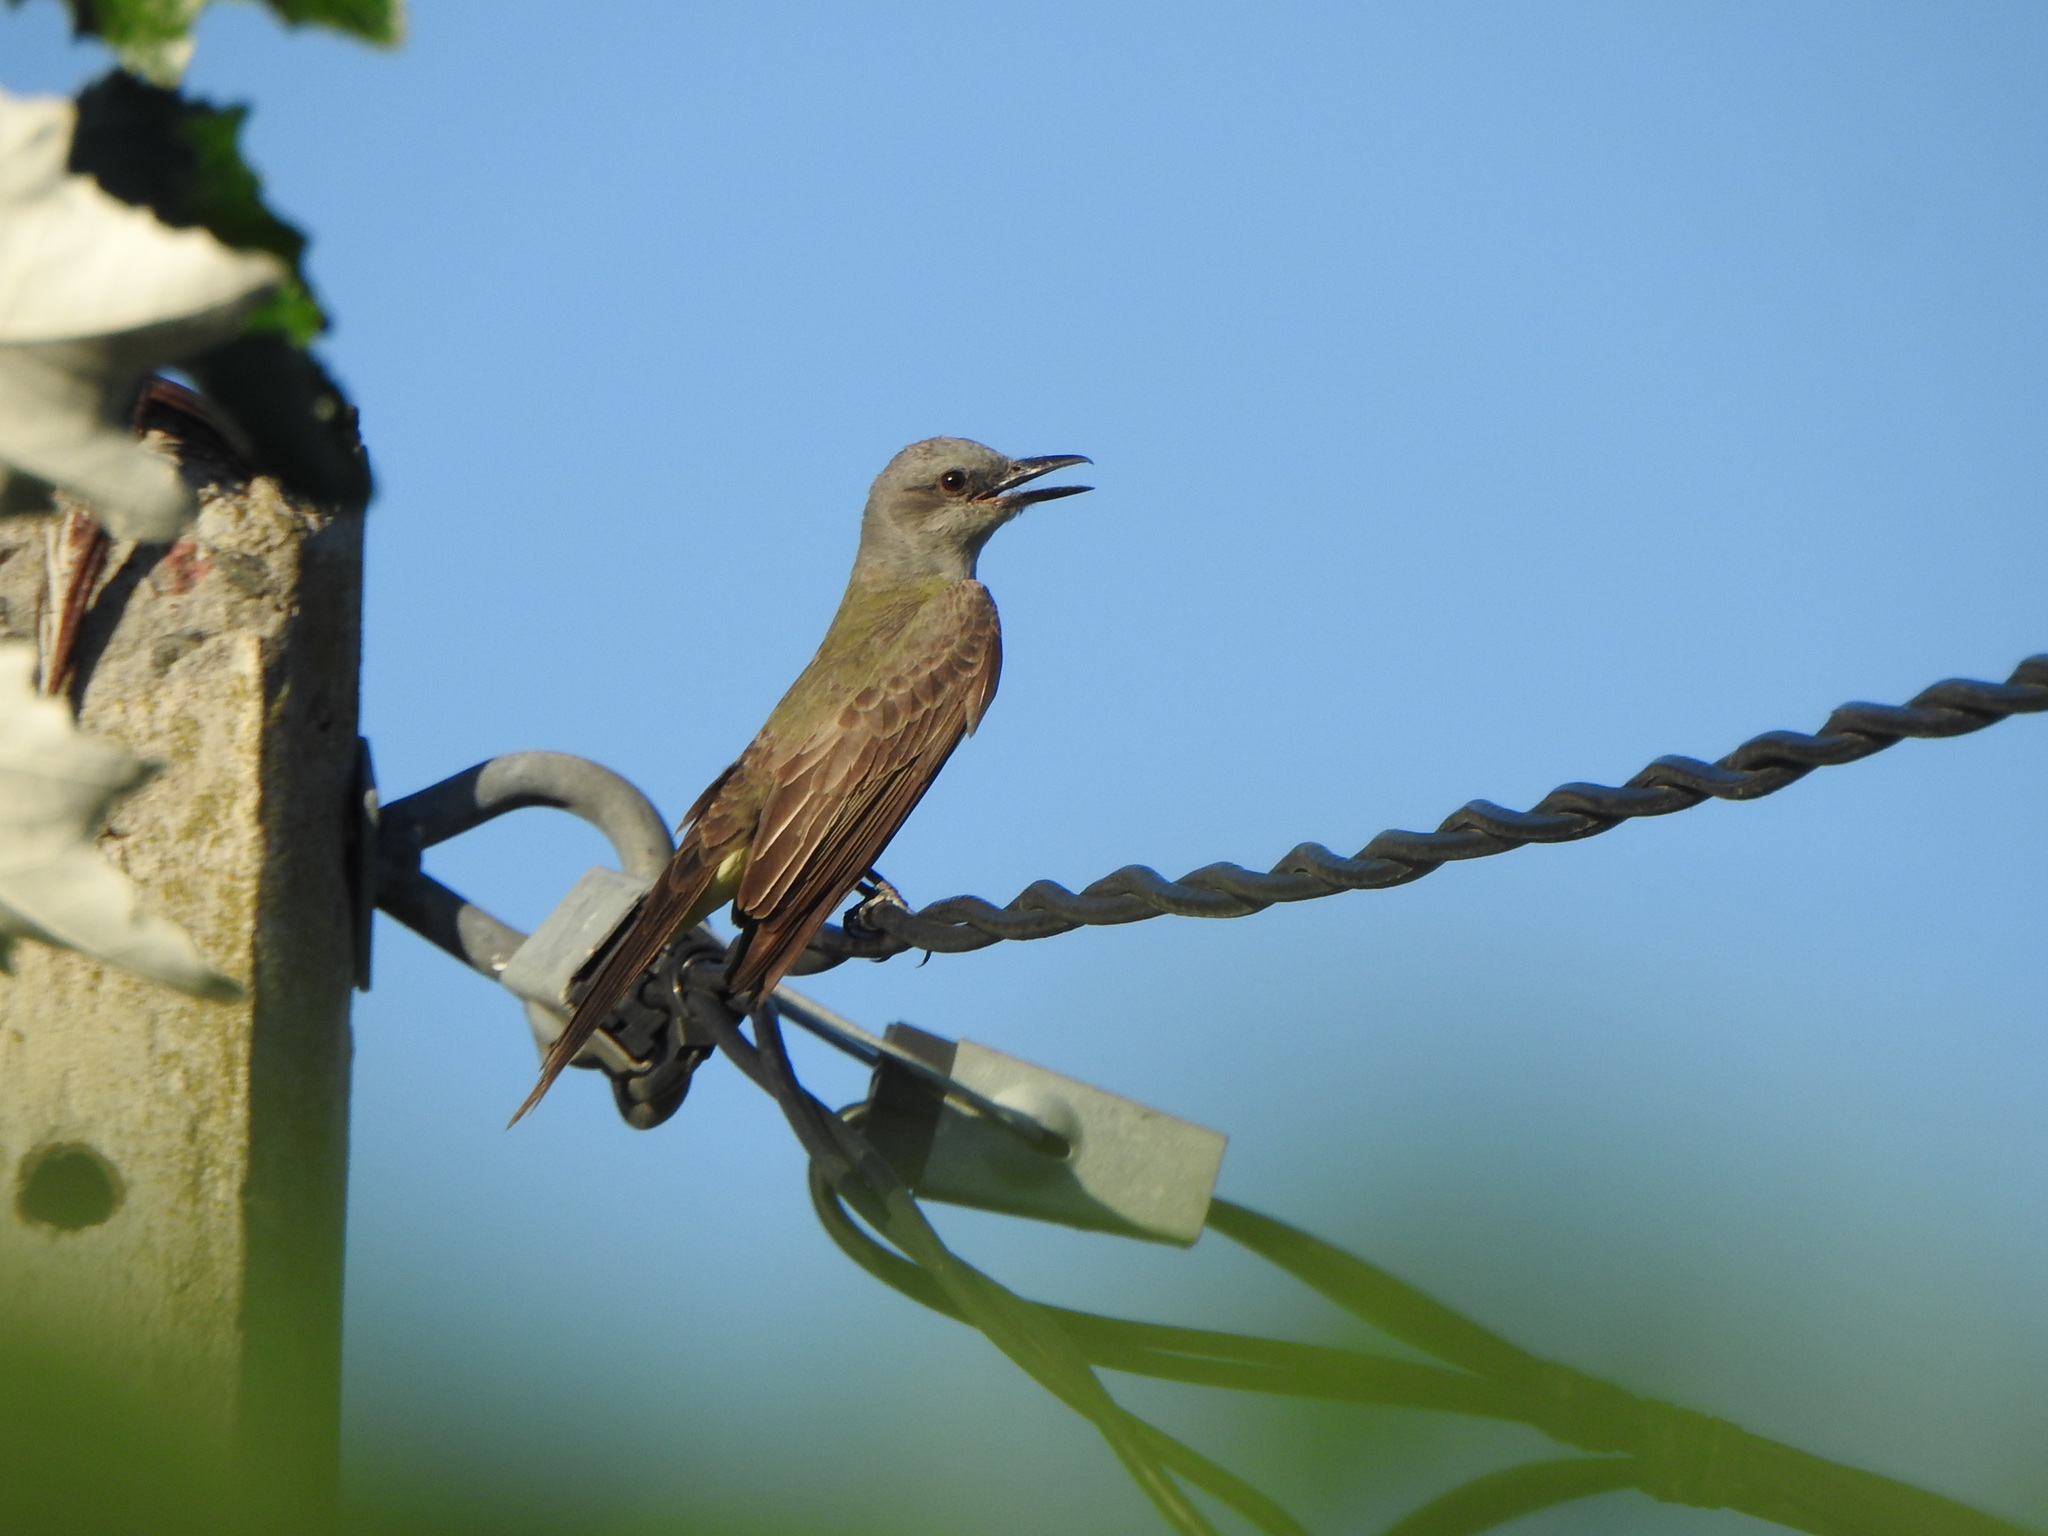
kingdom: Animalia
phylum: Chordata
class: Aves
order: Passeriformes
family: Tyrannidae
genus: Tyrannus
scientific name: Tyrannus melancholicus
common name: Tropical kingbird
